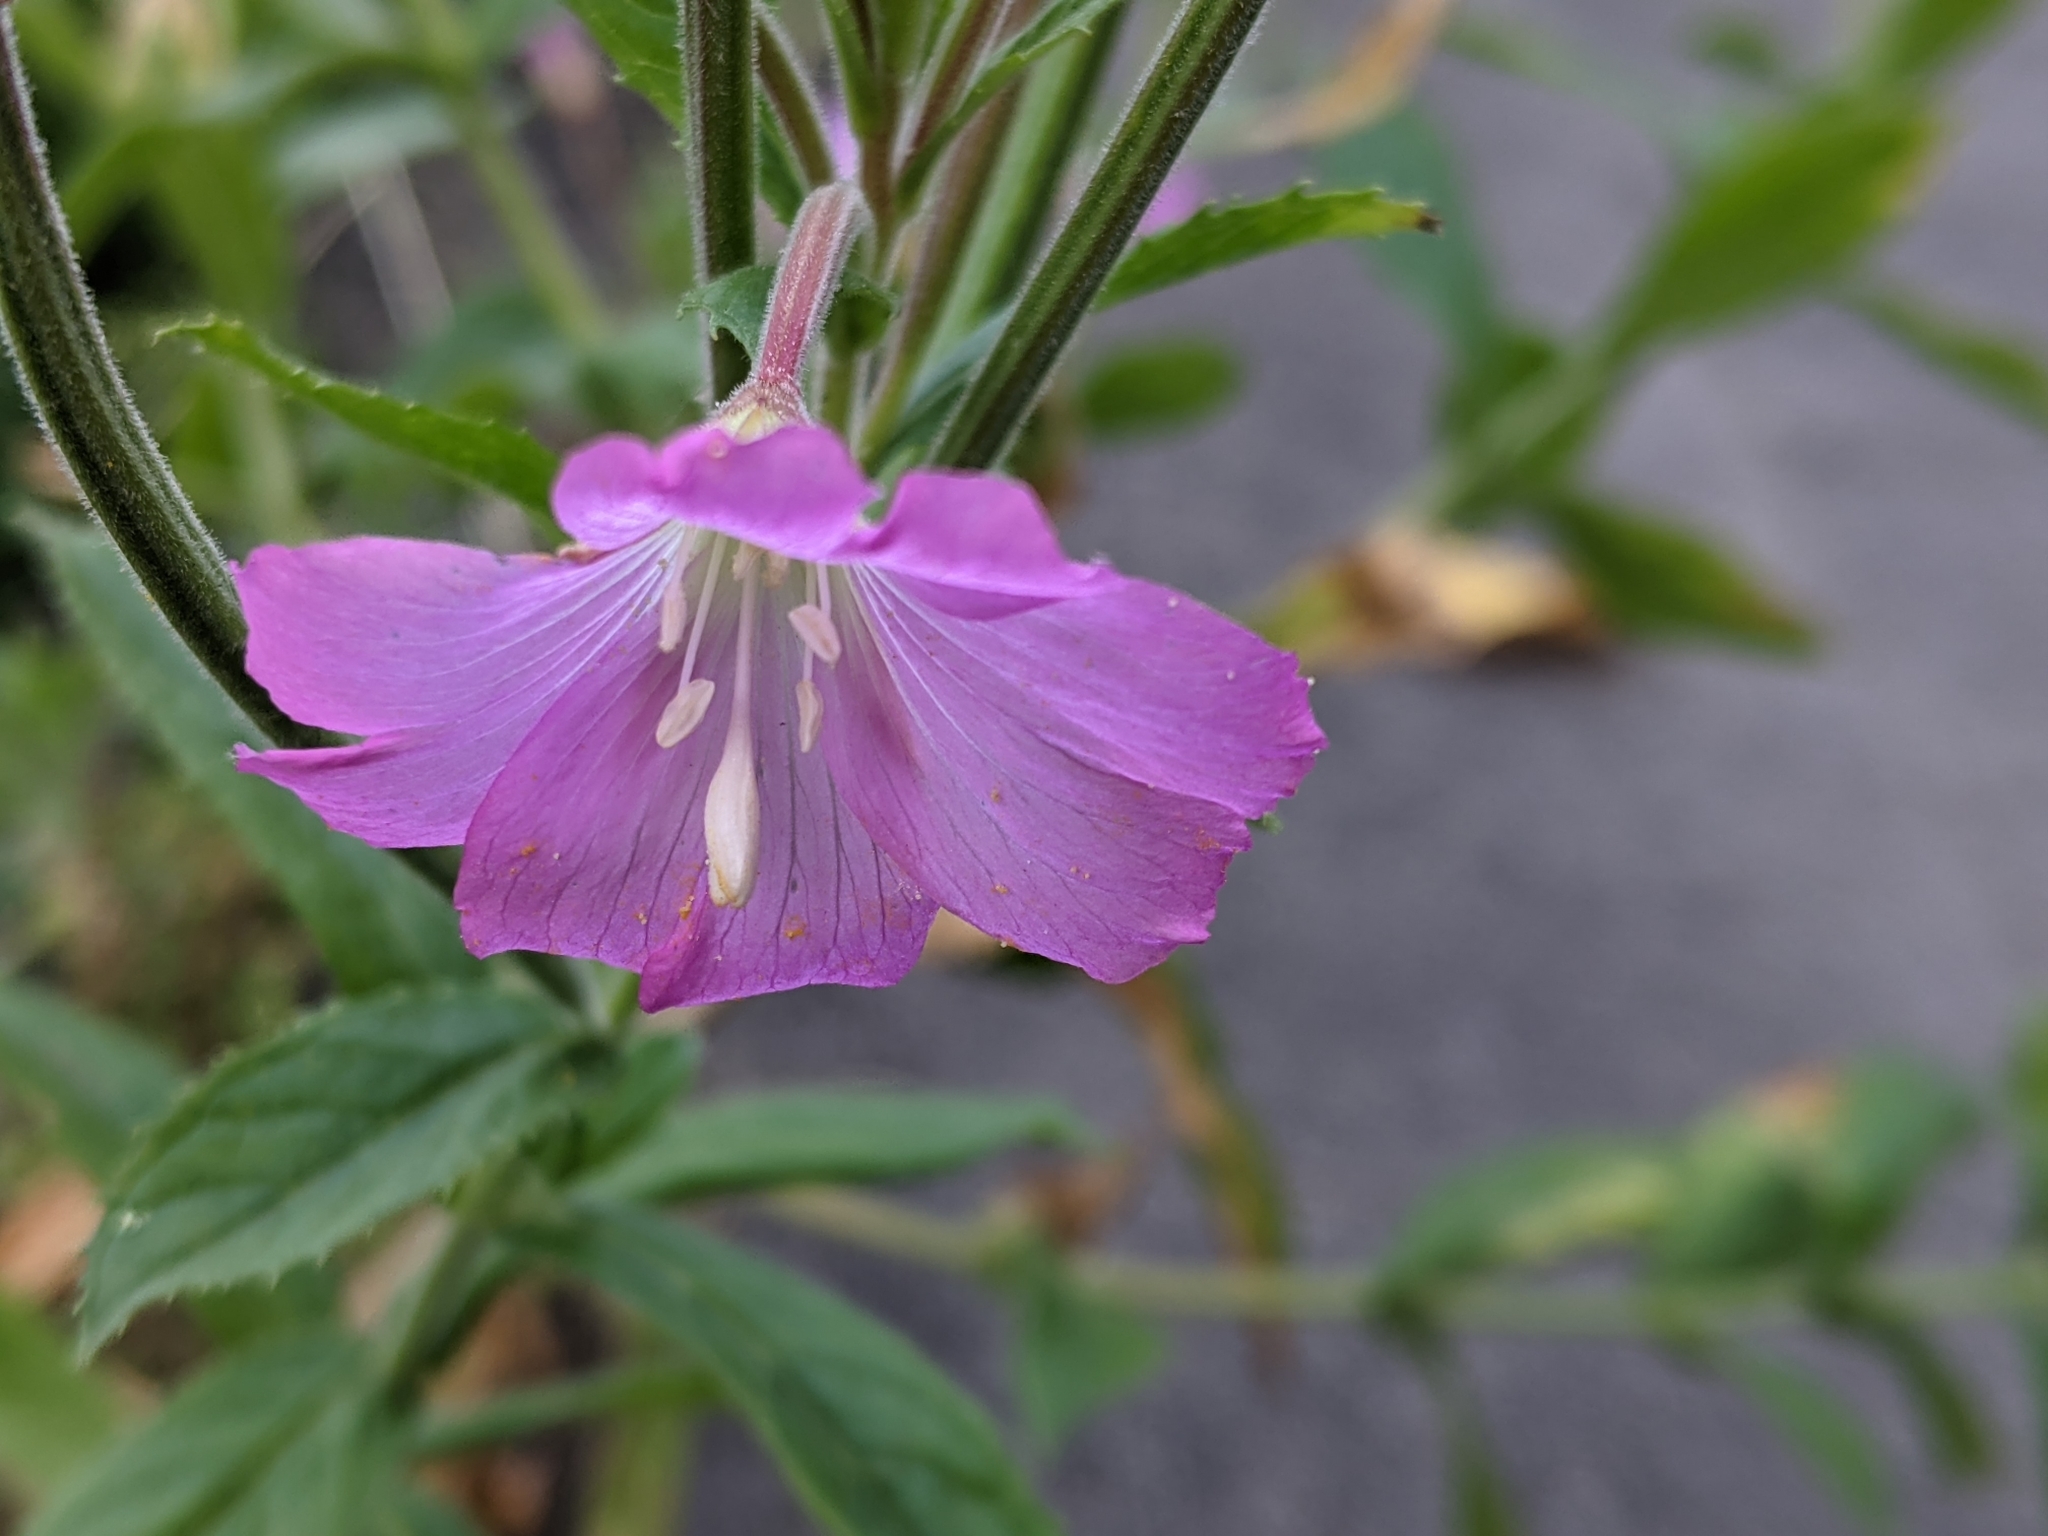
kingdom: Plantae
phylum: Tracheophyta
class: Magnoliopsida
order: Myrtales
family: Onagraceae
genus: Epilobium
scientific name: Epilobium hirsutum
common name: Great willowherb
